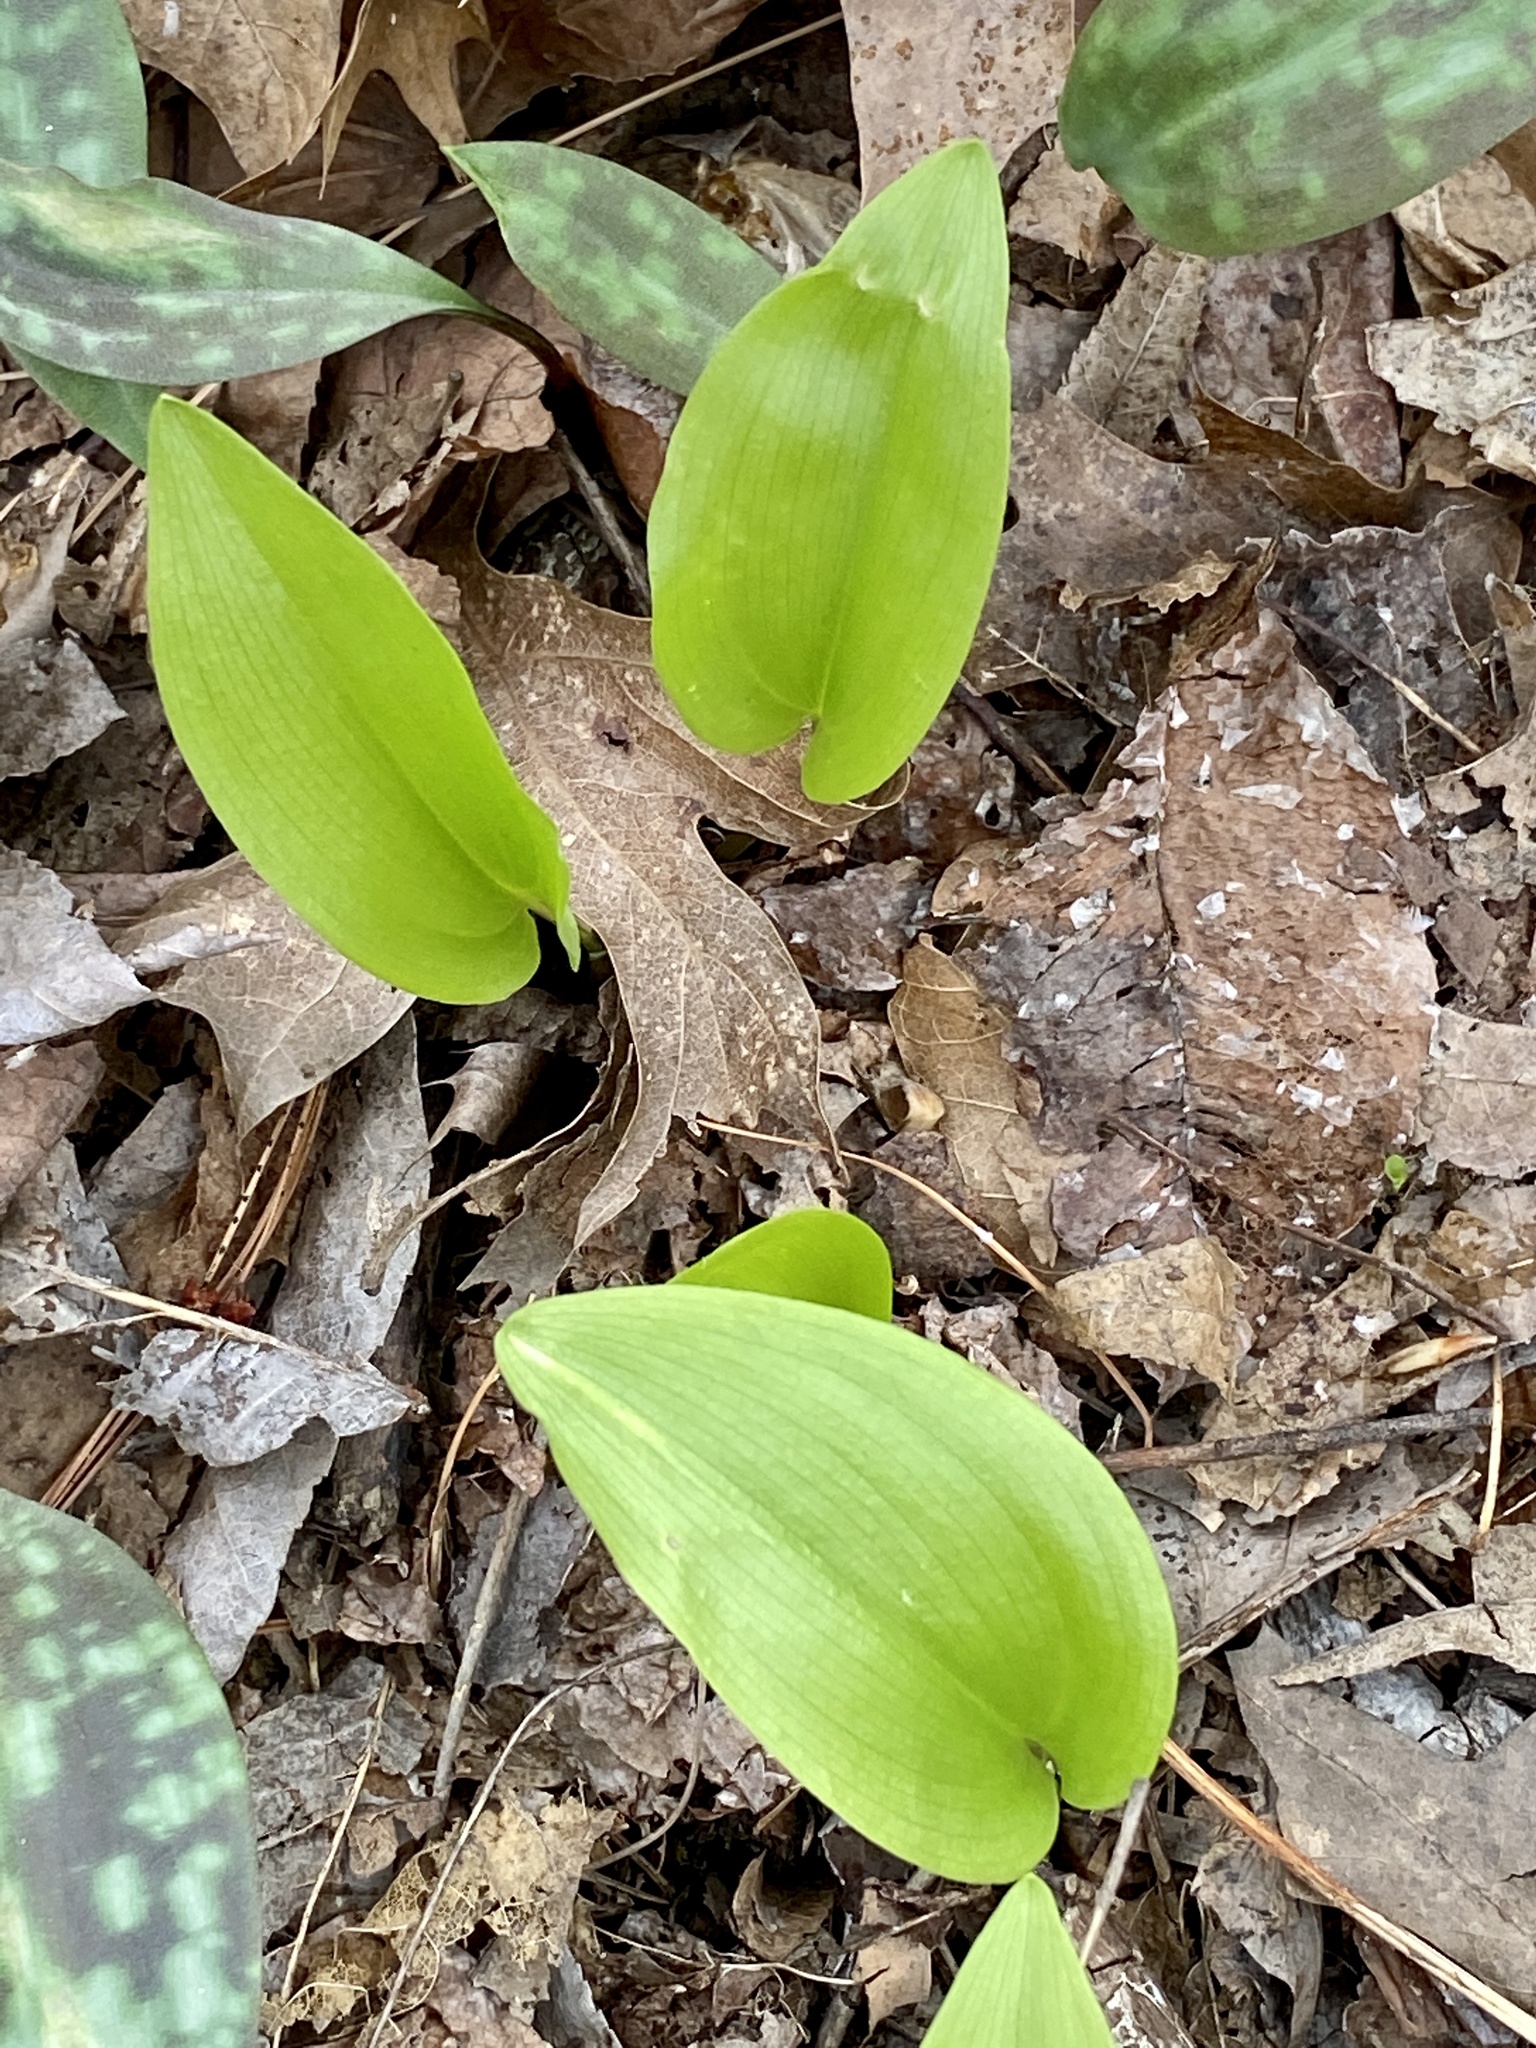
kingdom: Plantae
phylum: Tracheophyta
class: Liliopsida
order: Asparagales
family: Asparagaceae
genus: Maianthemum
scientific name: Maianthemum canadense
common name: False lily-of-the-valley
